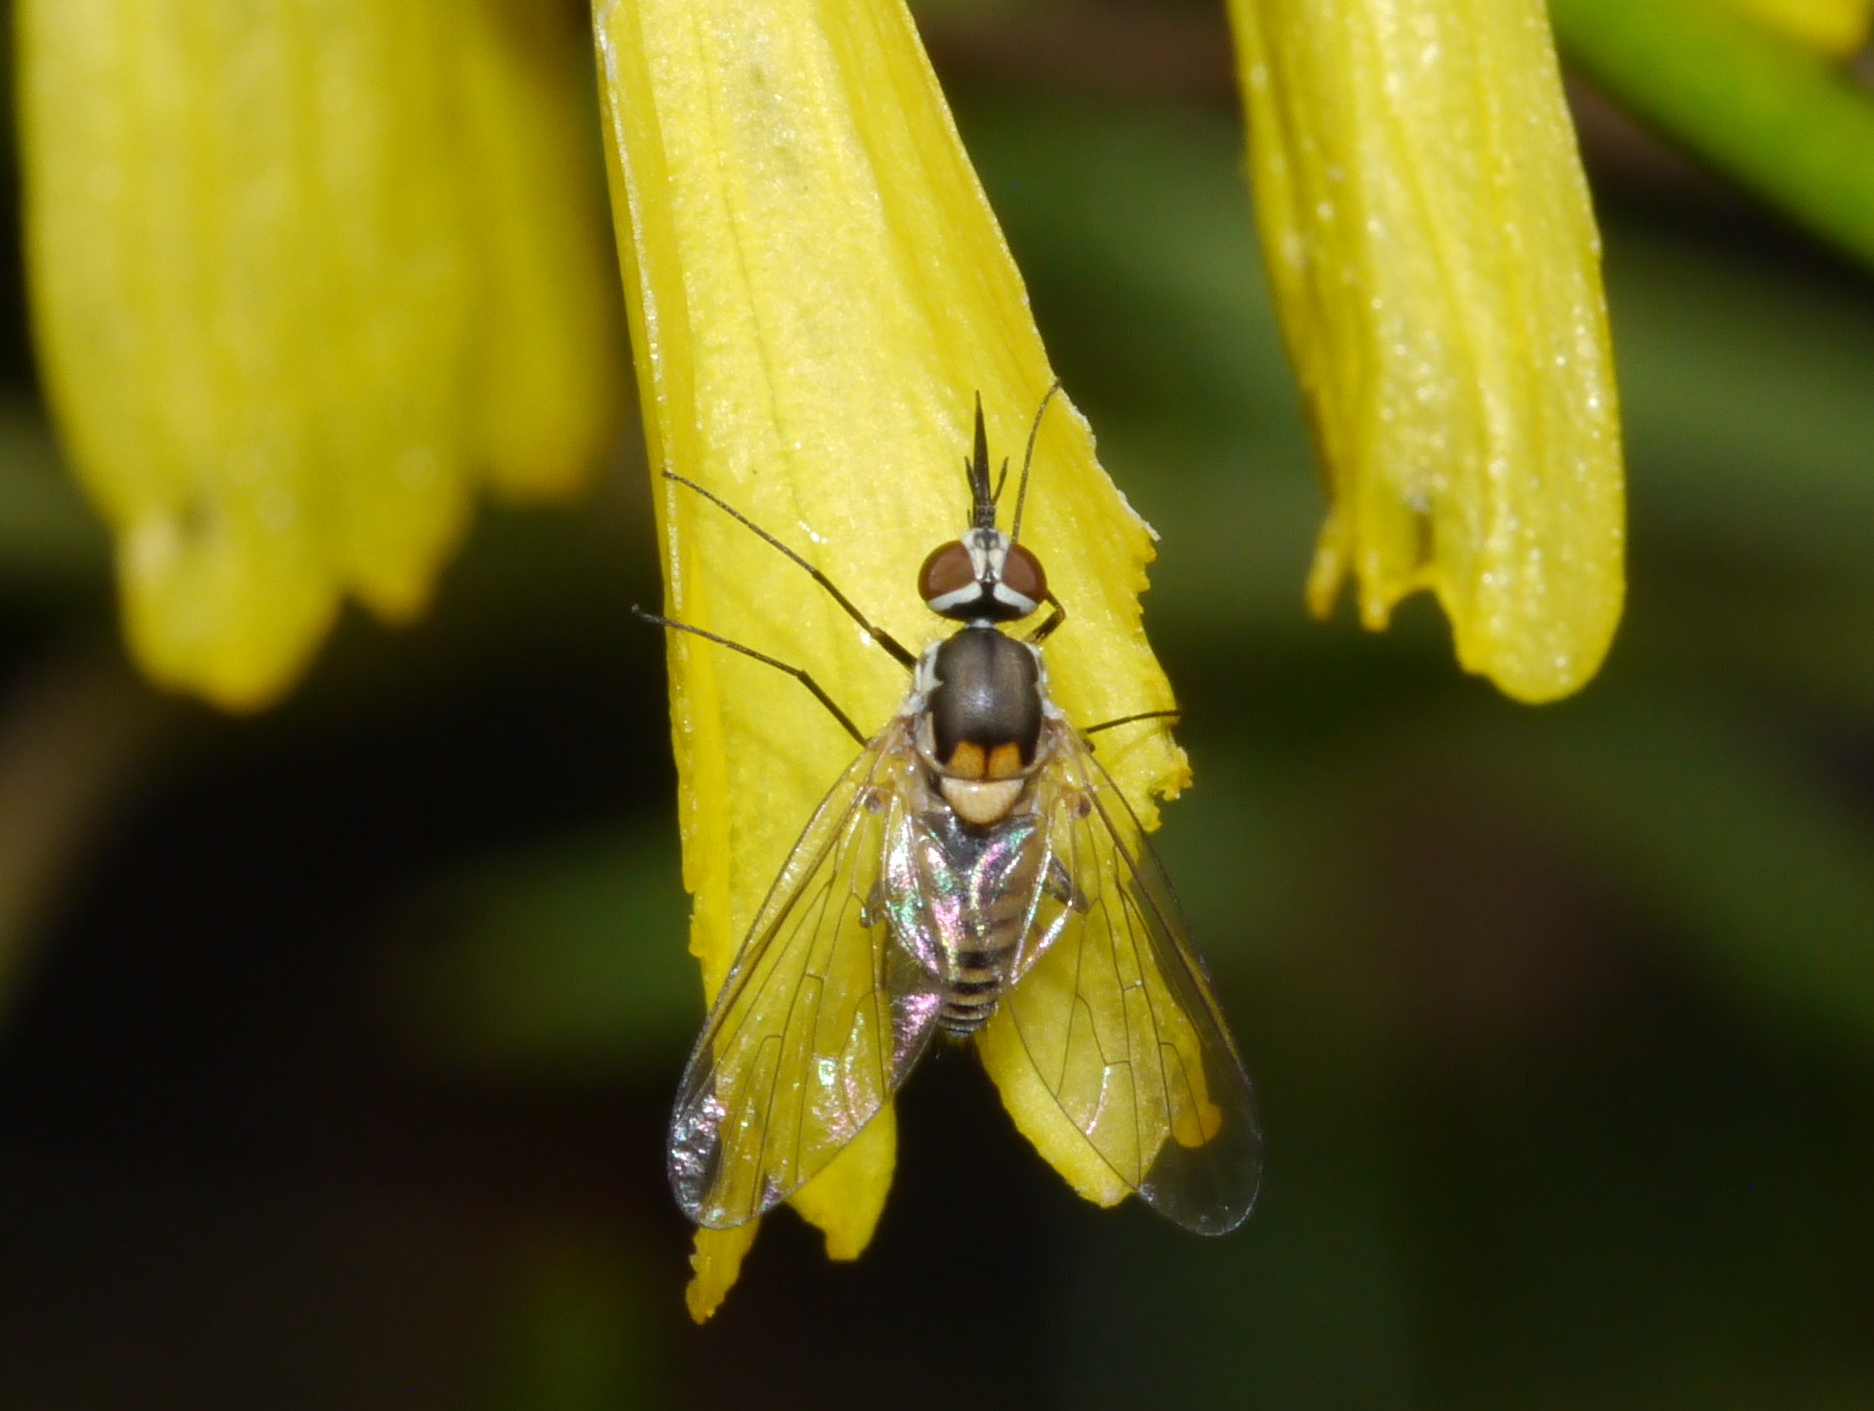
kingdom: Animalia
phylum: Arthropoda
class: Insecta
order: Diptera
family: Bombyliidae
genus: Neacreotrichus
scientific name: Neacreotrichus consors
